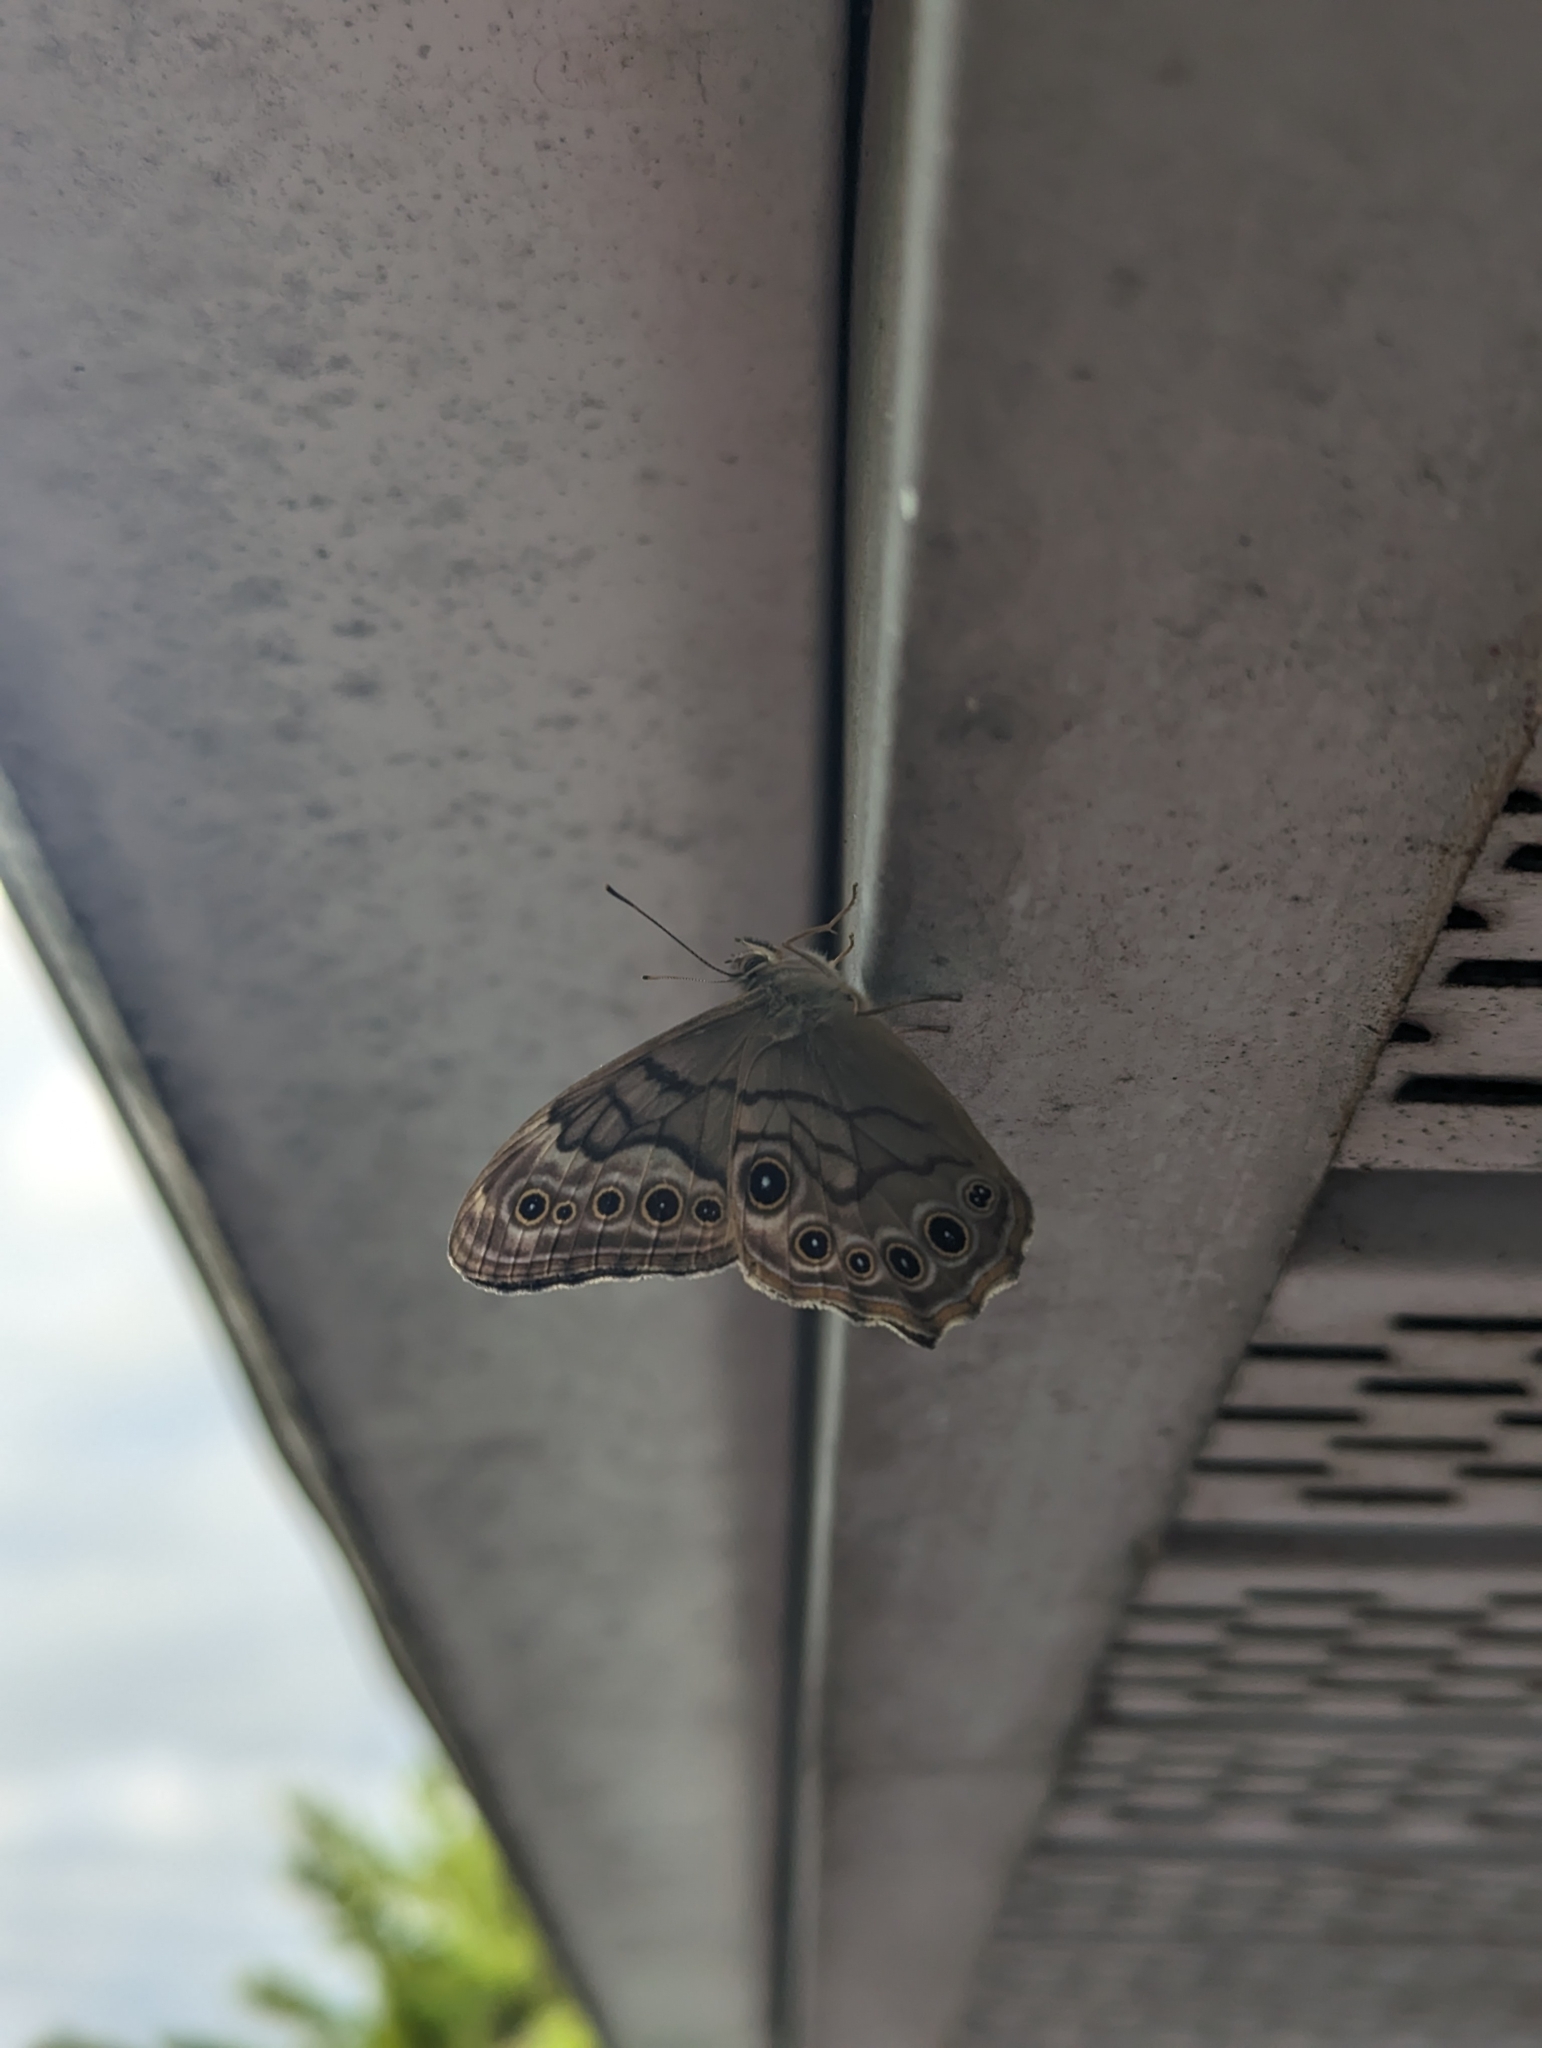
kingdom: Animalia
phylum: Arthropoda
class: Insecta
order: Lepidoptera
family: Nymphalidae
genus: Lethe
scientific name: Lethe creola
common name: Creole pearly-eye
